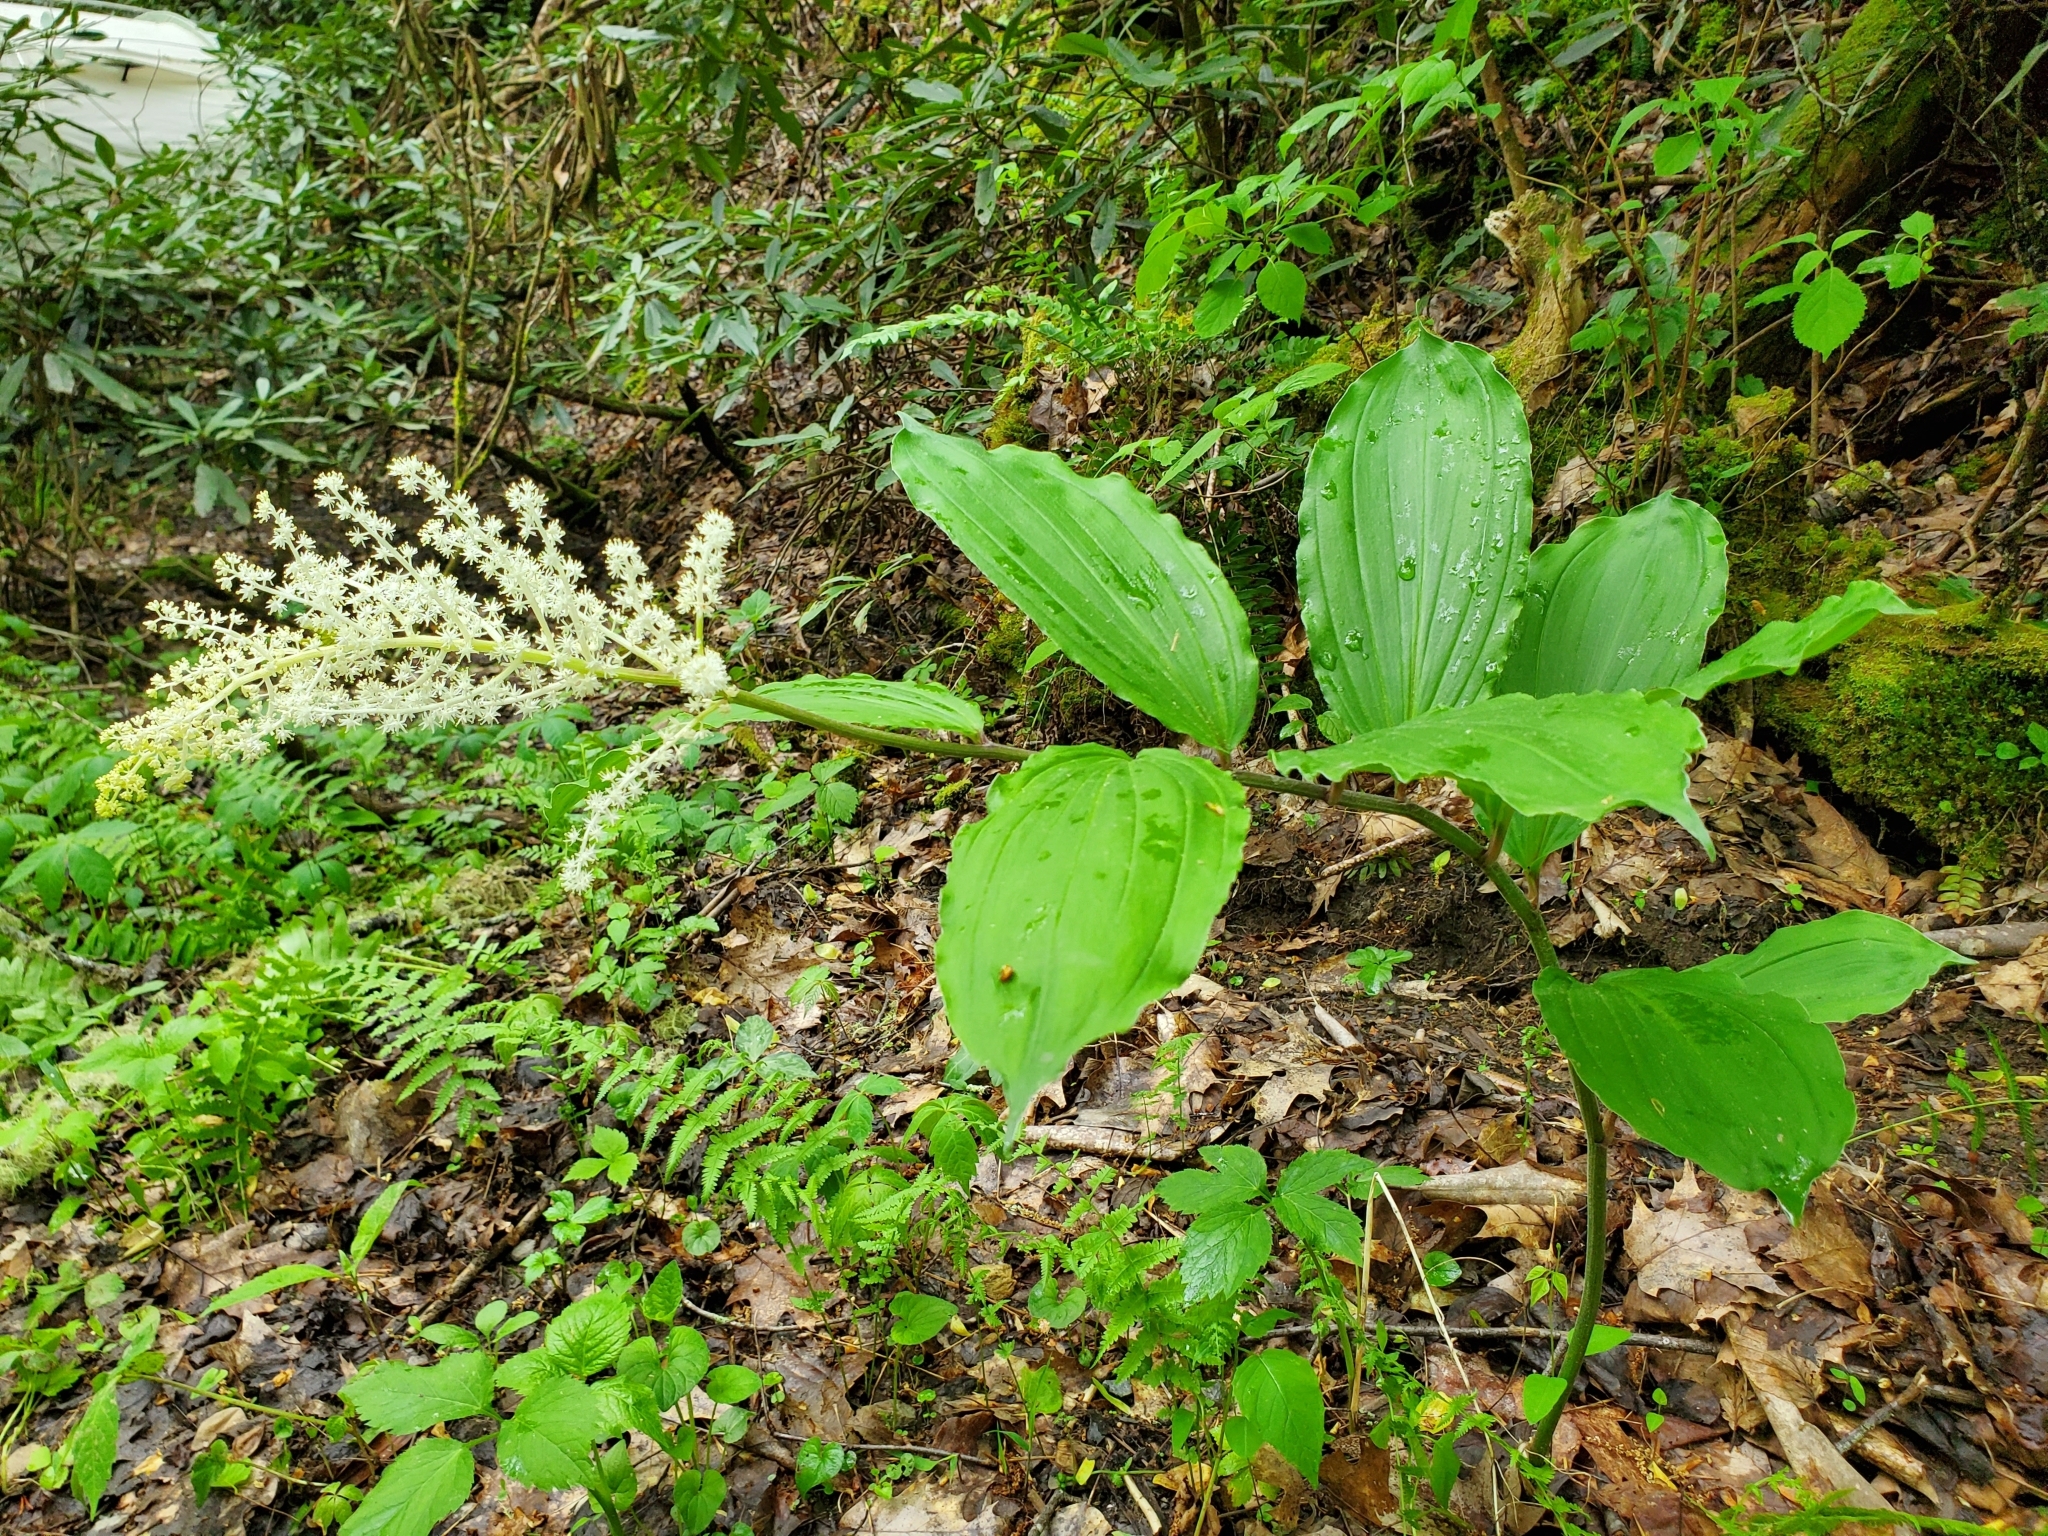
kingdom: Plantae
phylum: Tracheophyta
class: Liliopsida
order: Asparagales
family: Asparagaceae
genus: Maianthemum
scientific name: Maianthemum racemosum
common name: False spikenard
